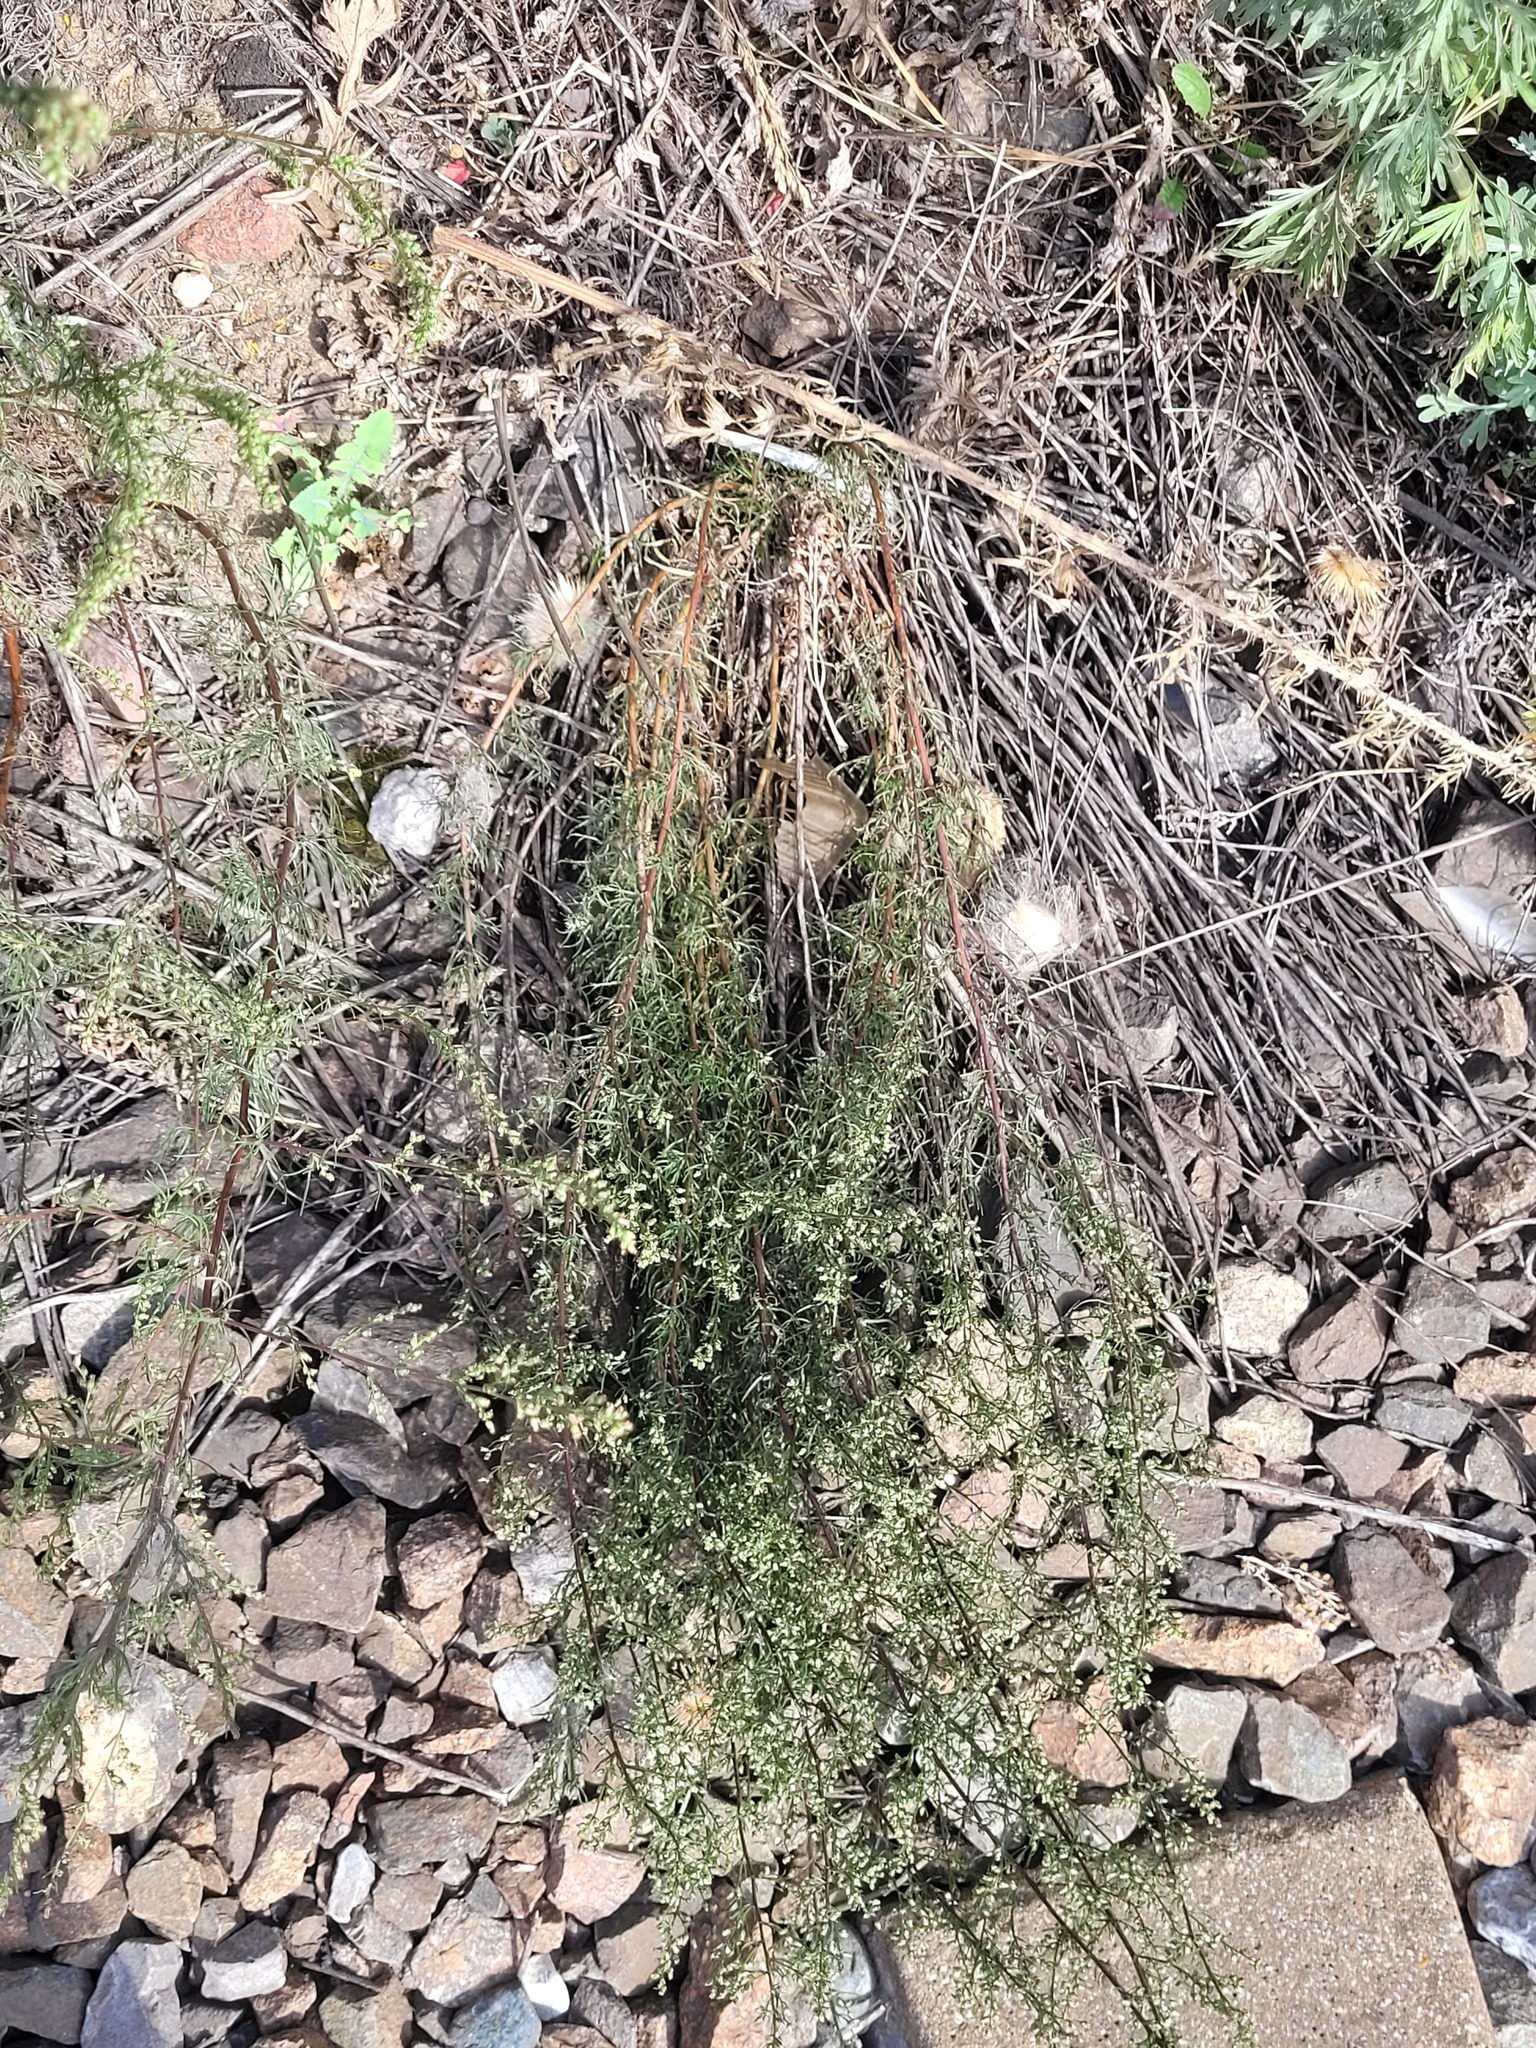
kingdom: Plantae
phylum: Tracheophyta
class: Magnoliopsida
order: Asterales
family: Asteraceae
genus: Artemisia
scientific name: Artemisia campestris
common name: Field wormwood
